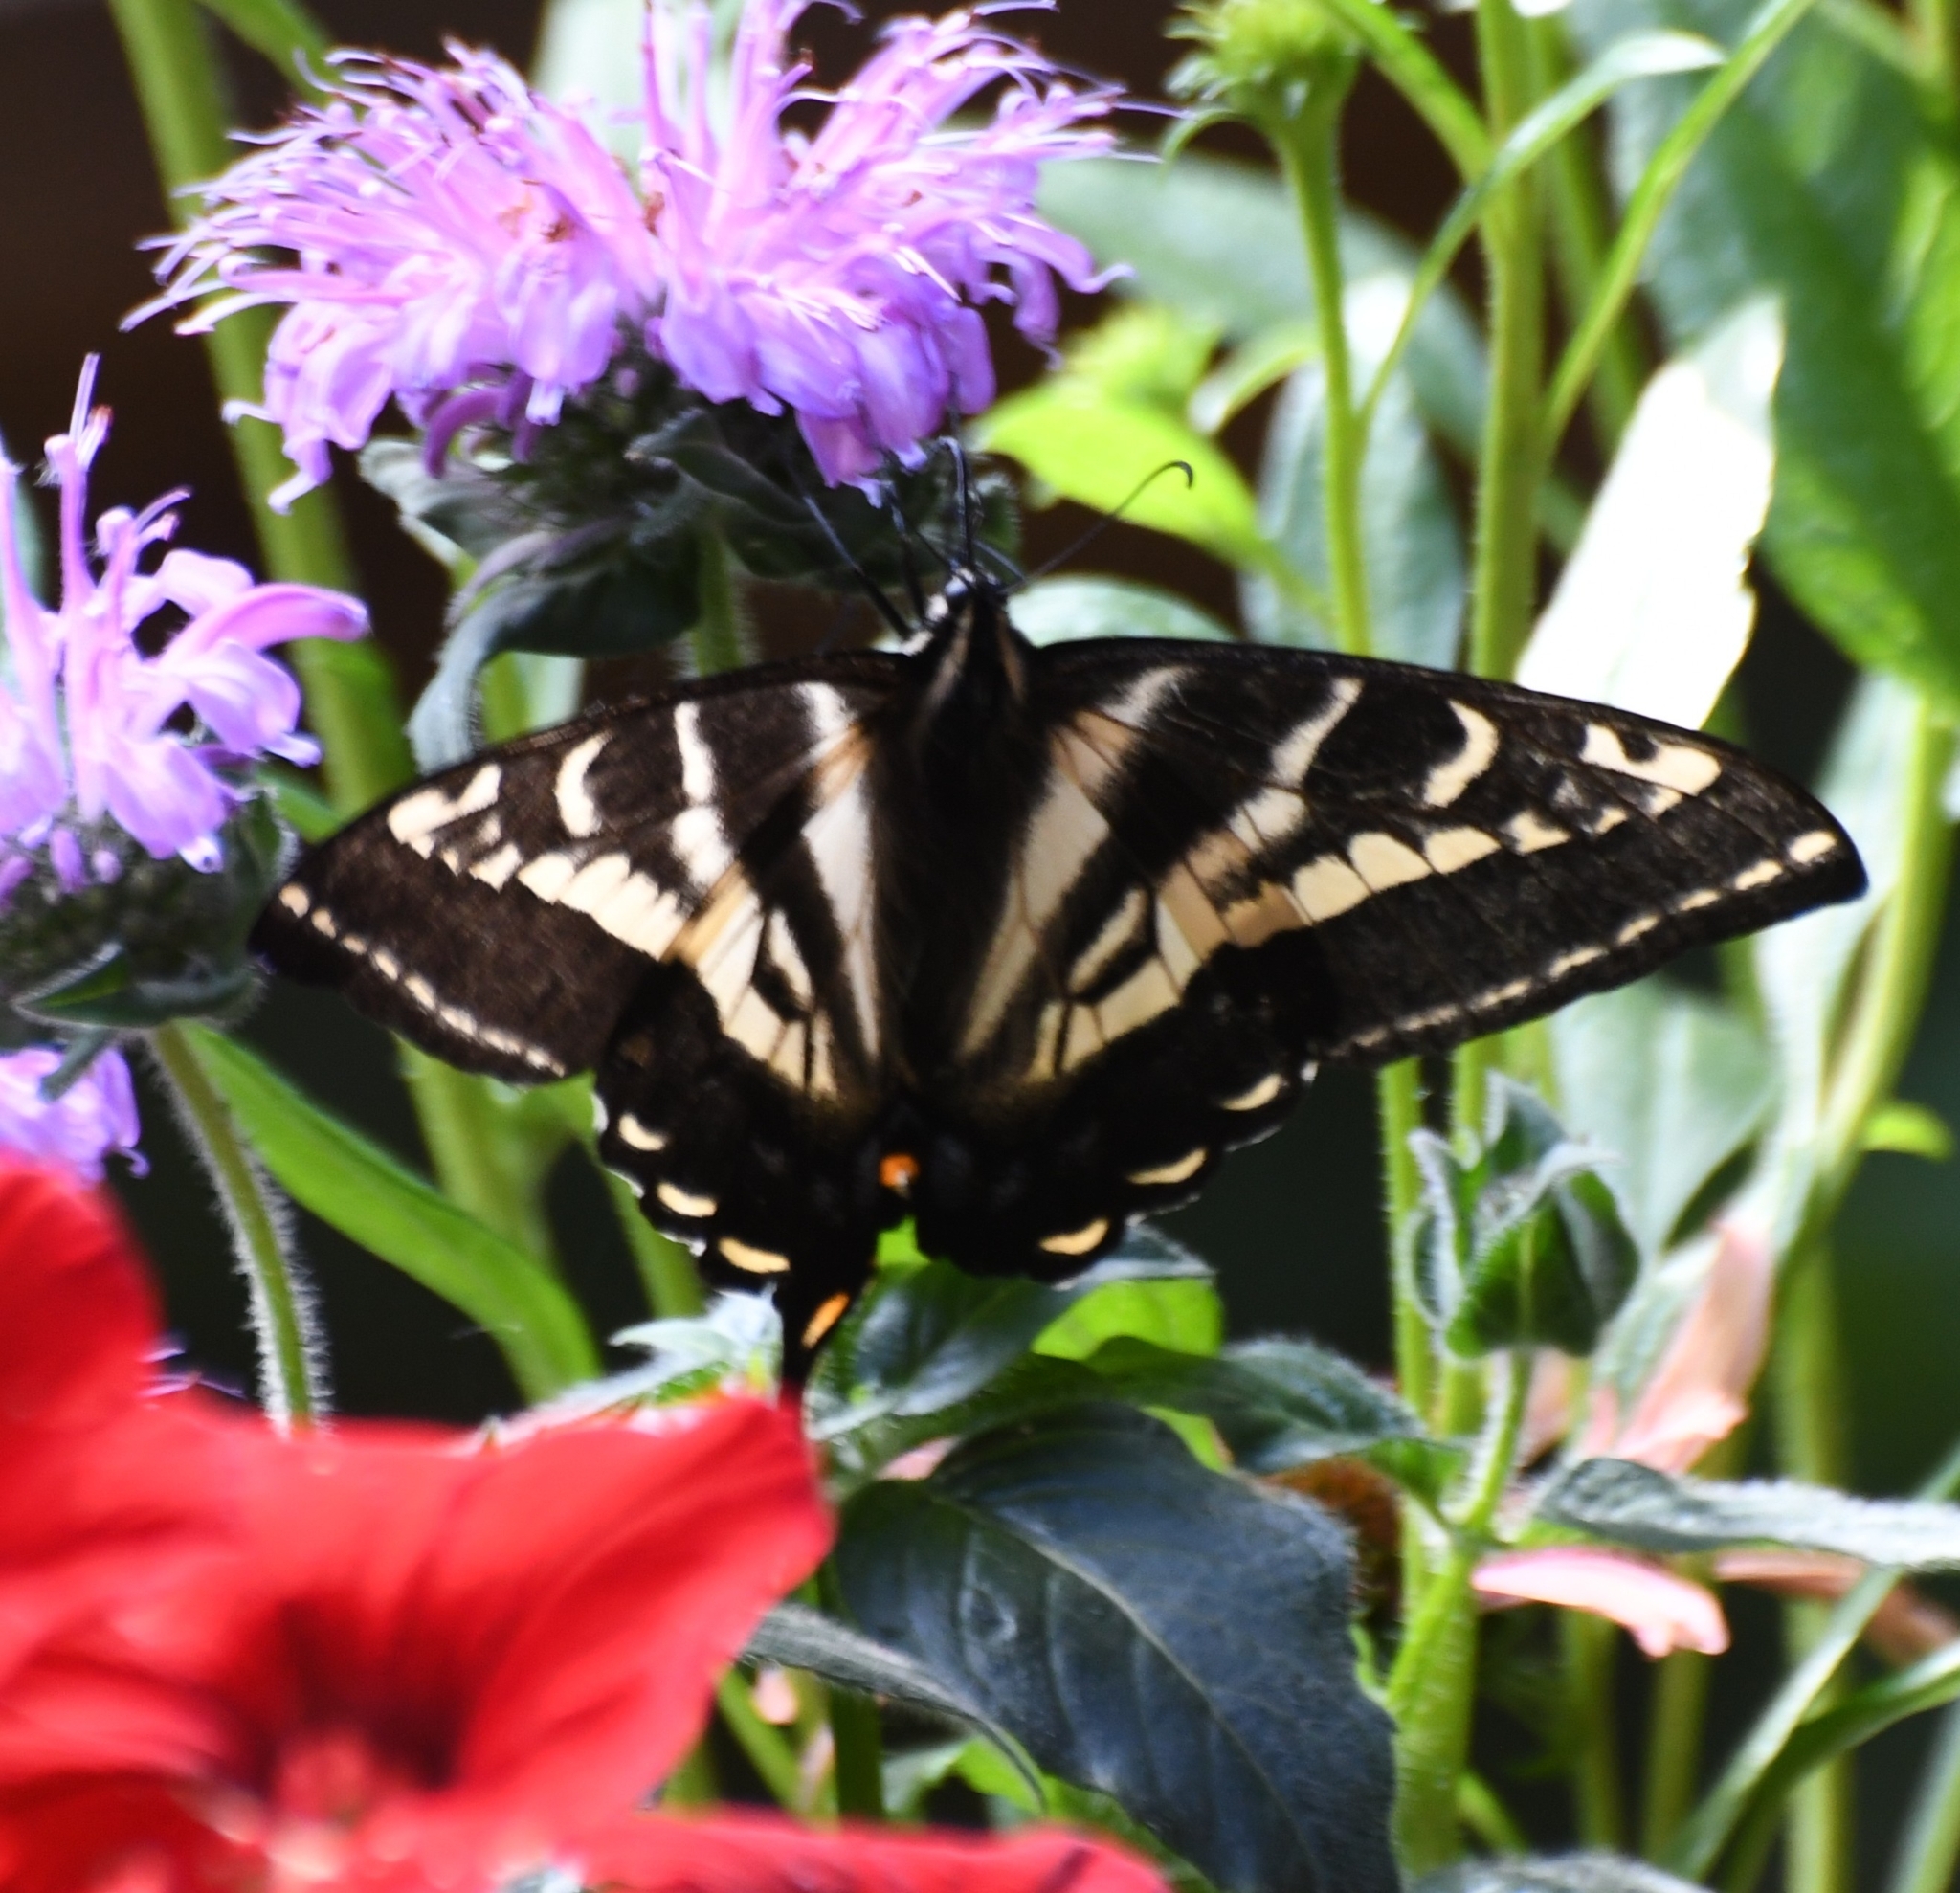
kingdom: Animalia
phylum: Arthropoda
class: Insecta
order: Lepidoptera
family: Papilionidae
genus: Papilio
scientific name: Papilio eurymedon
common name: Pale tiger swallowtail
